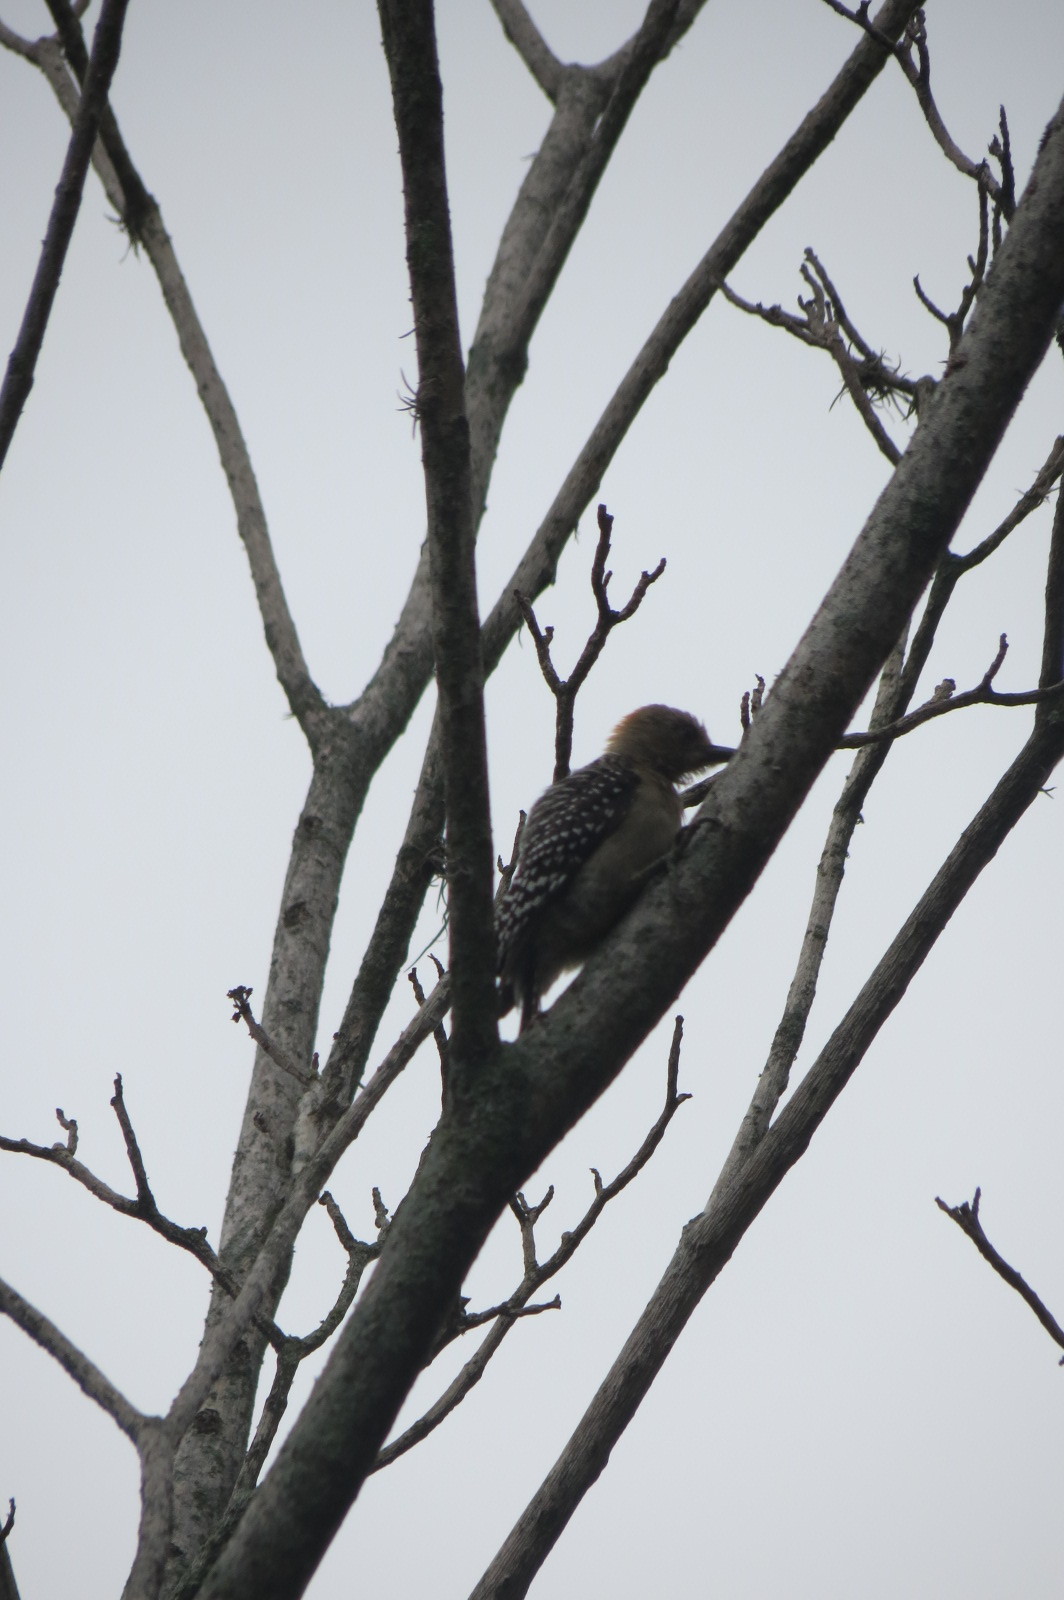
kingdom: Animalia
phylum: Chordata
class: Aves
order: Piciformes
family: Picidae
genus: Melanerpes
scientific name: Melanerpes rubricapillus
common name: Red-crowned woodpecker
